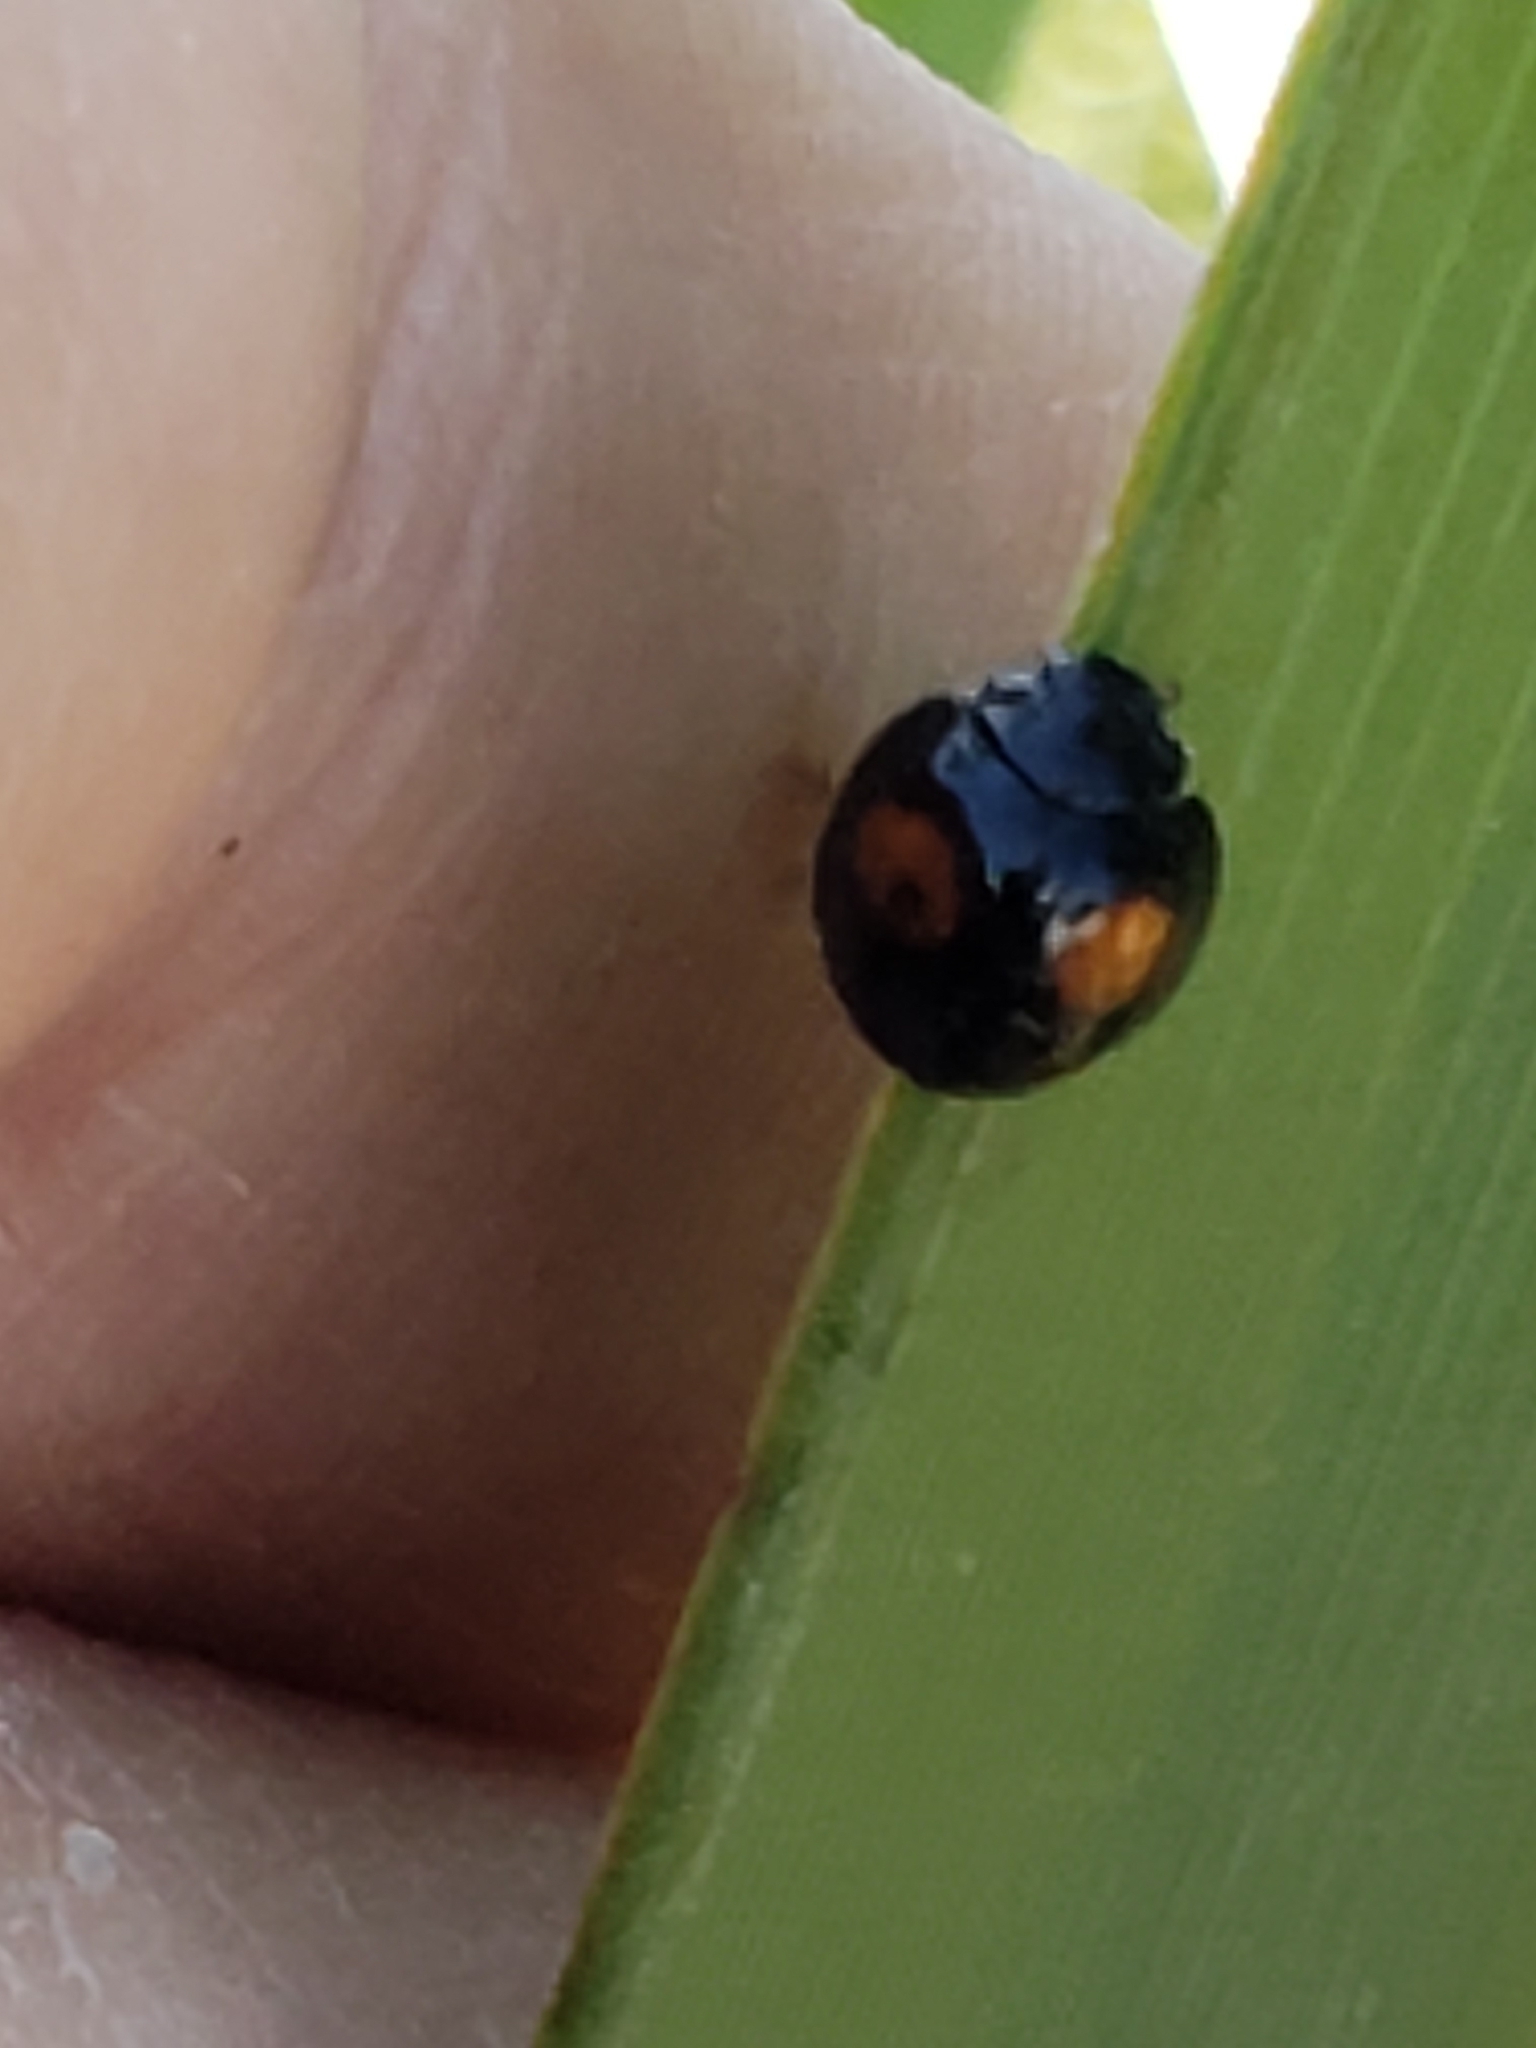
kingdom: Animalia
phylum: Arthropoda
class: Insecta
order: Coleoptera
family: Coccinellidae
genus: Chilocorus
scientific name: Chilocorus cacti
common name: Cactus lady beetle
